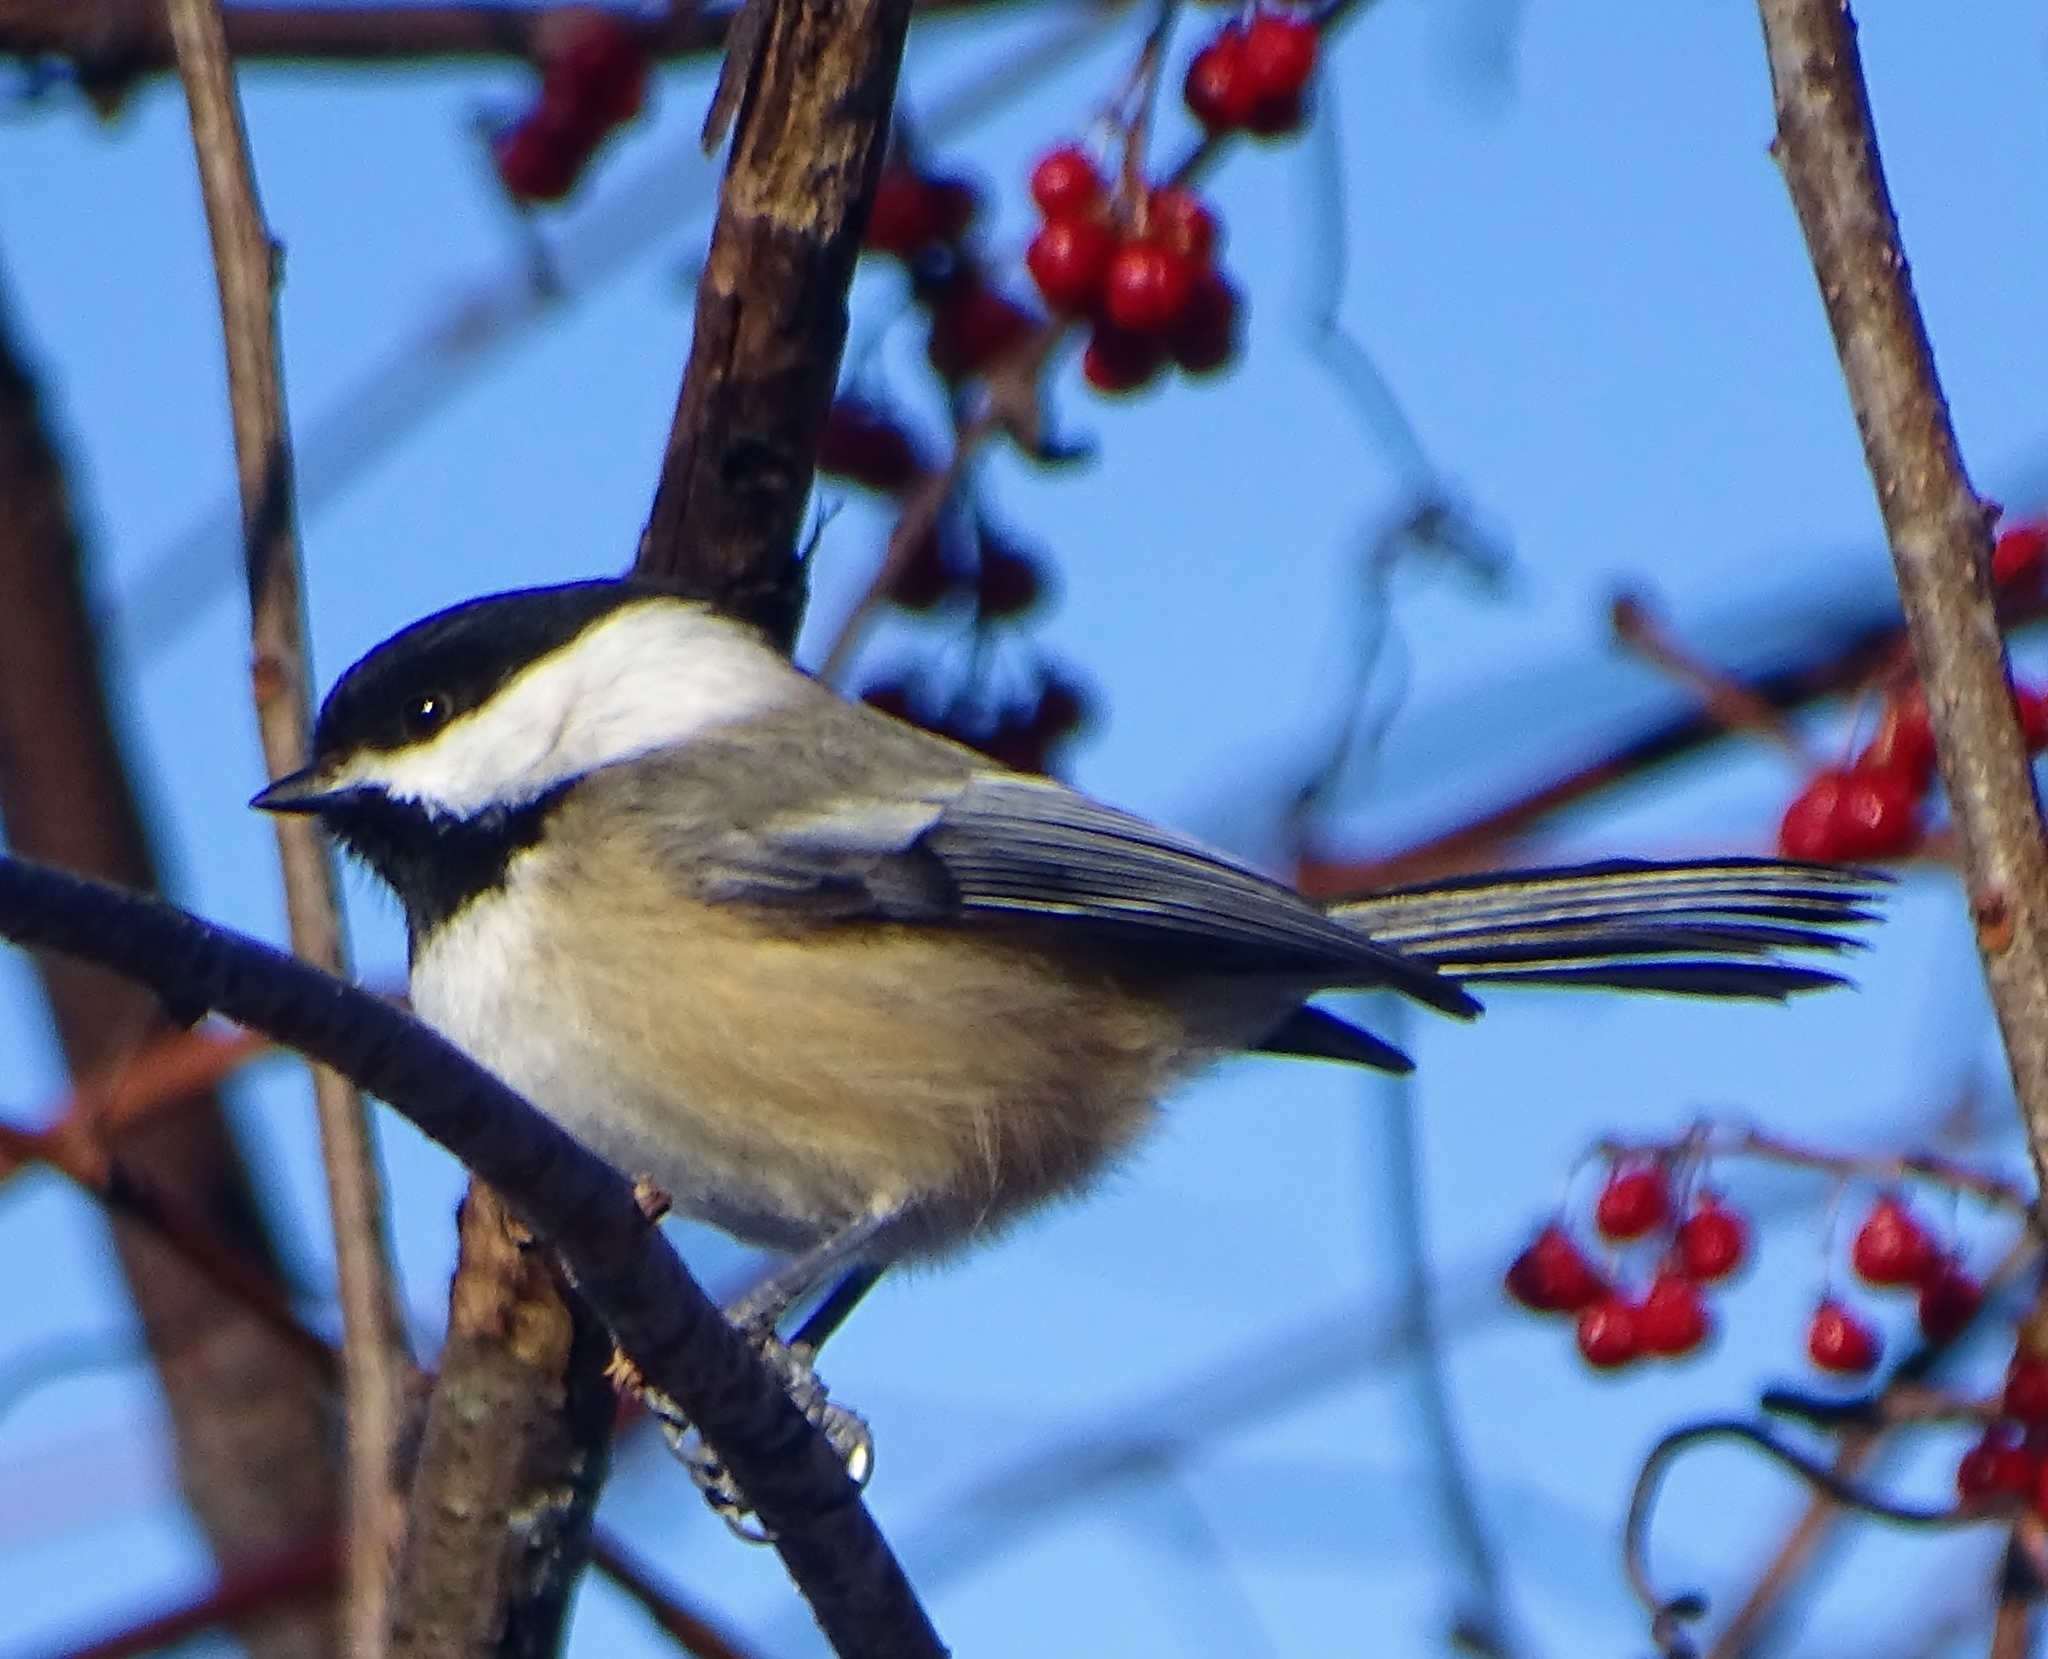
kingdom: Animalia
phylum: Chordata
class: Aves
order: Passeriformes
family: Paridae
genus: Poecile
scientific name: Poecile atricapillus
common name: Black-capped chickadee
